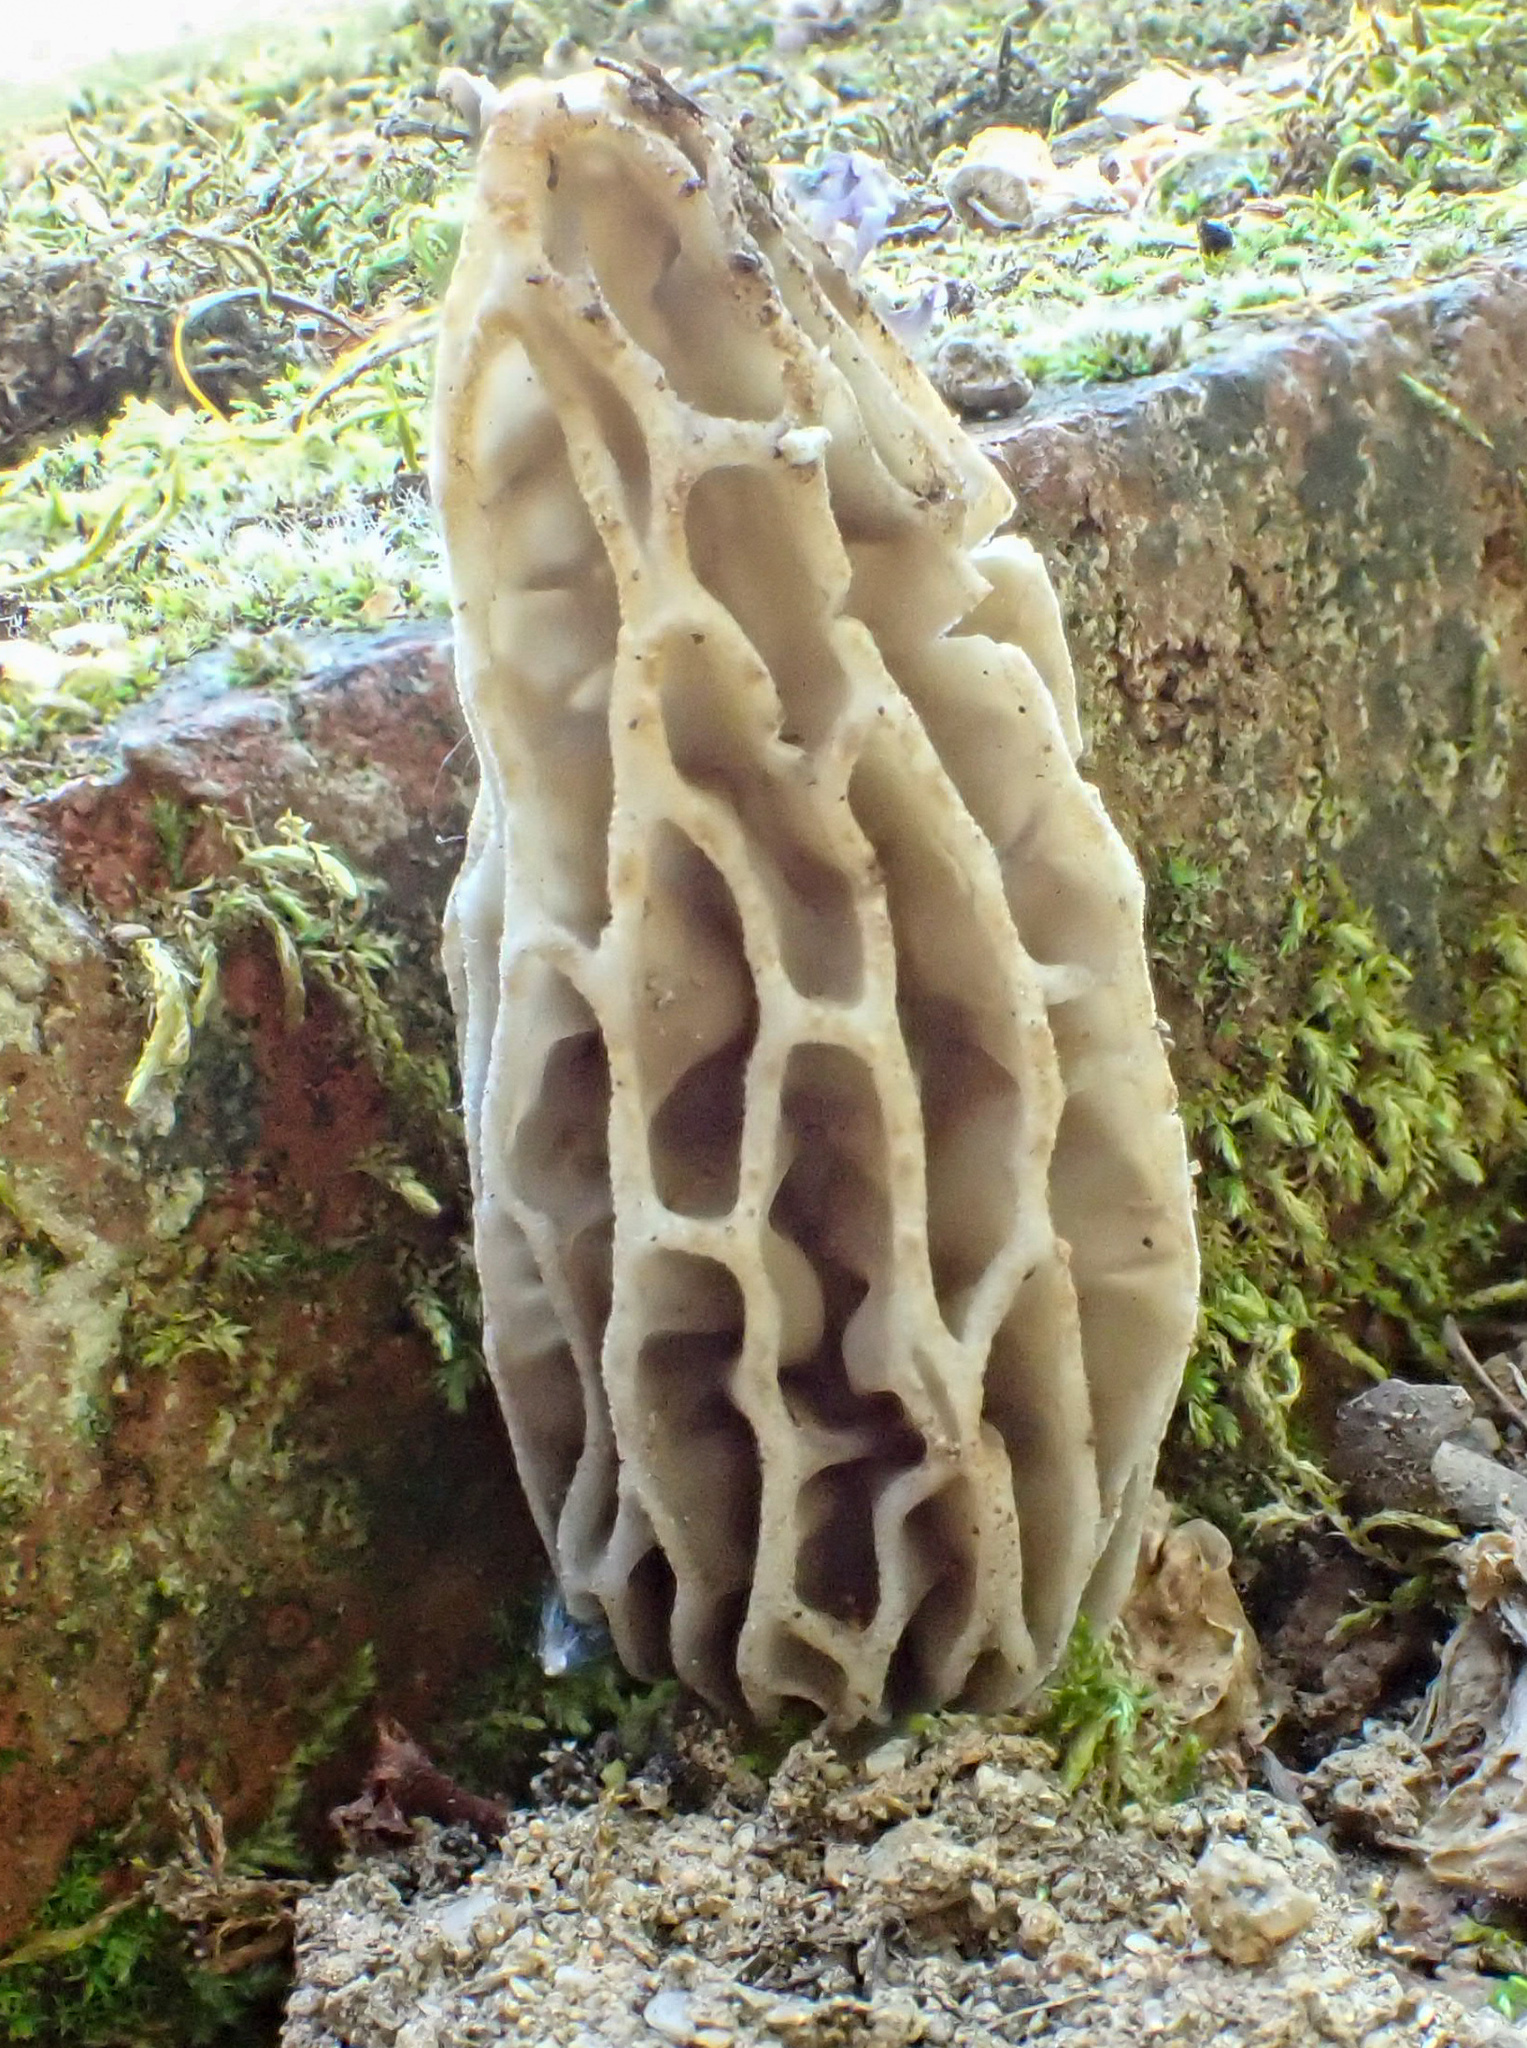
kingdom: Fungi
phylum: Ascomycota
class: Pezizomycetes
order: Pezizales
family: Morchellaceae
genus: Morchella
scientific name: Morchella rufobrunnea
